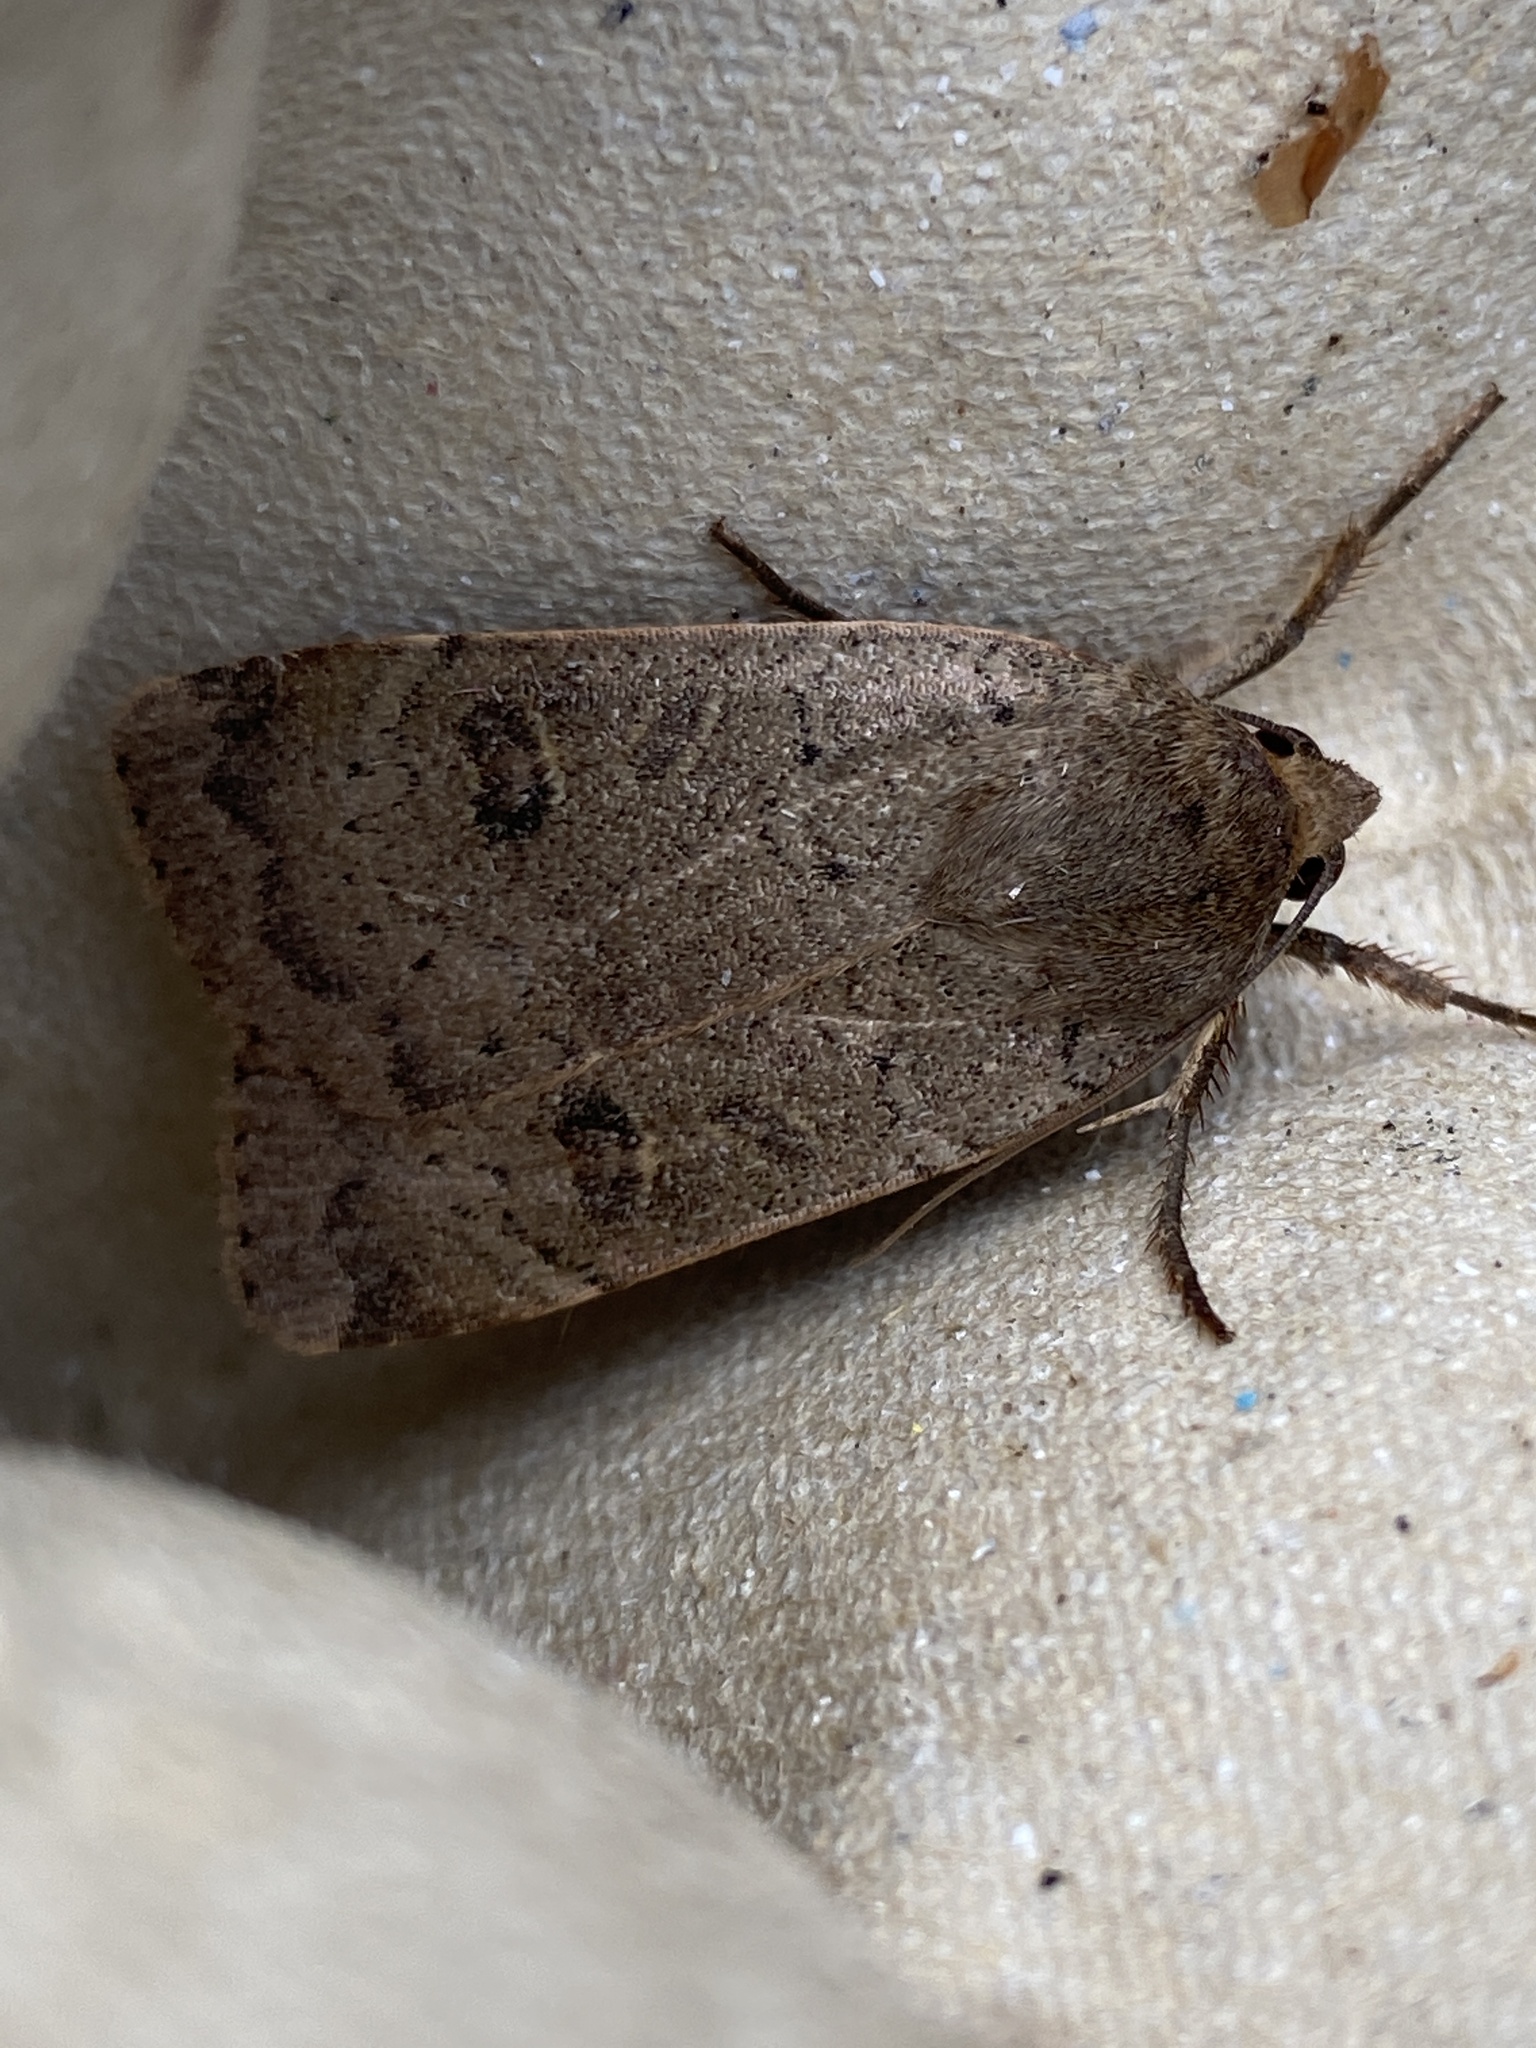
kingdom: Animalia
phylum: Arthropoda
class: Insecta
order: Lepidoptera
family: Noctuidae
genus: Noctua
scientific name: Noctua comes
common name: Lesser yellow underwing
